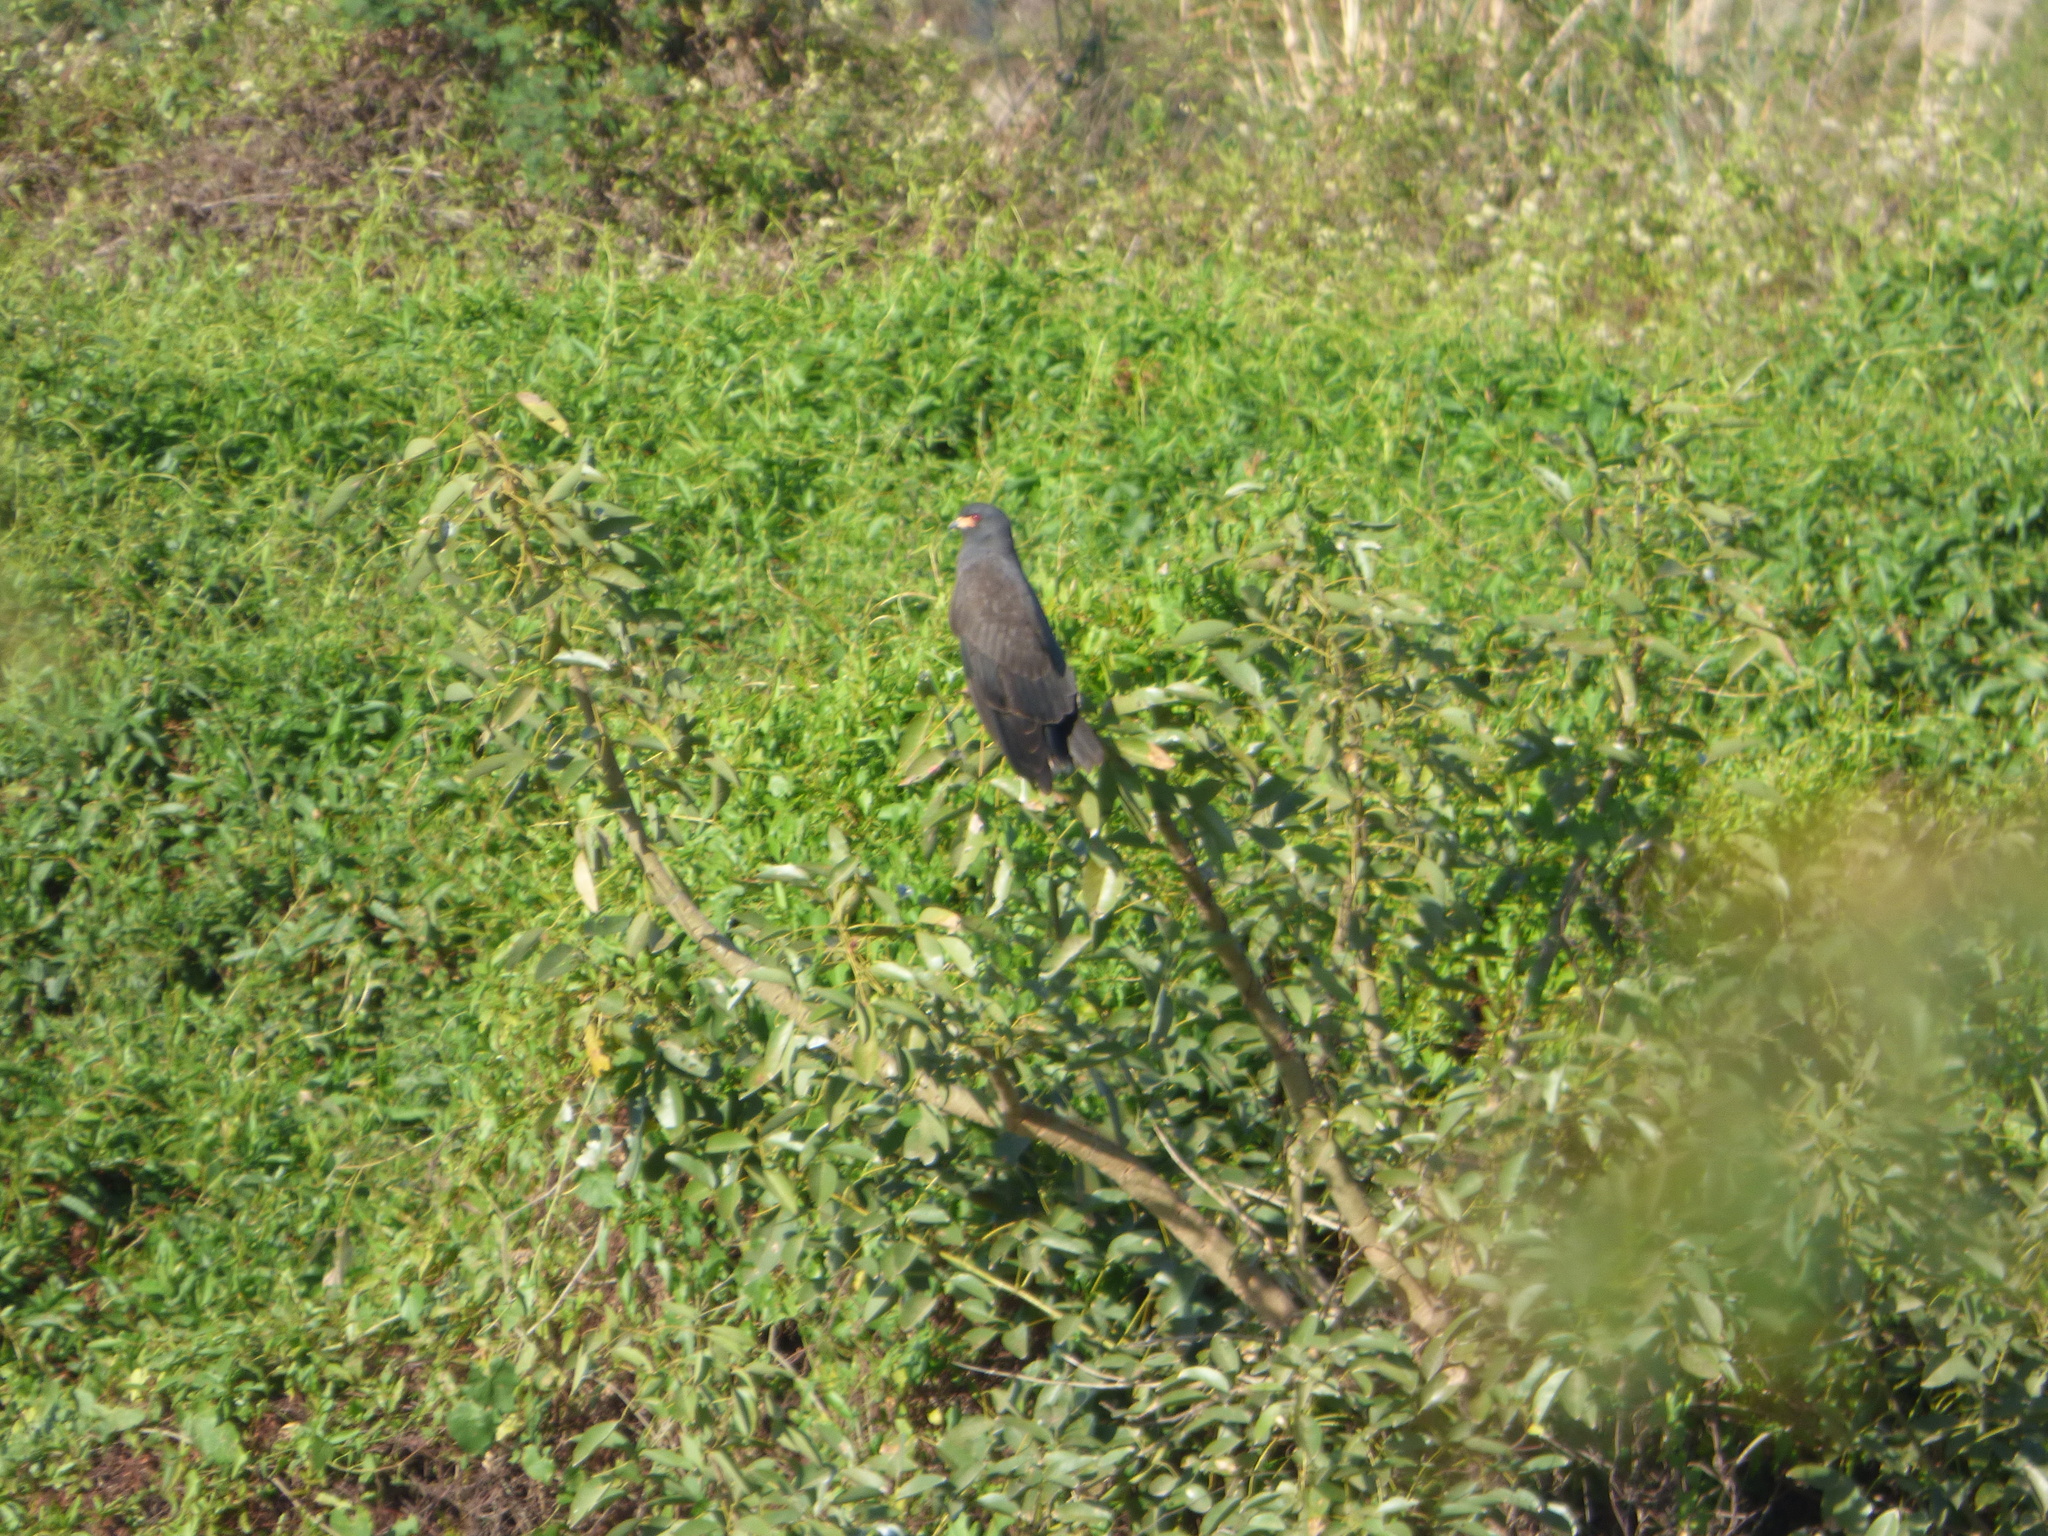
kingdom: Animalia
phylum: Chordata
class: Aves
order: Accipitriformes
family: Accipitridae
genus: Rostrhamus
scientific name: Rostrhamus sociabilis
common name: Snail kite
